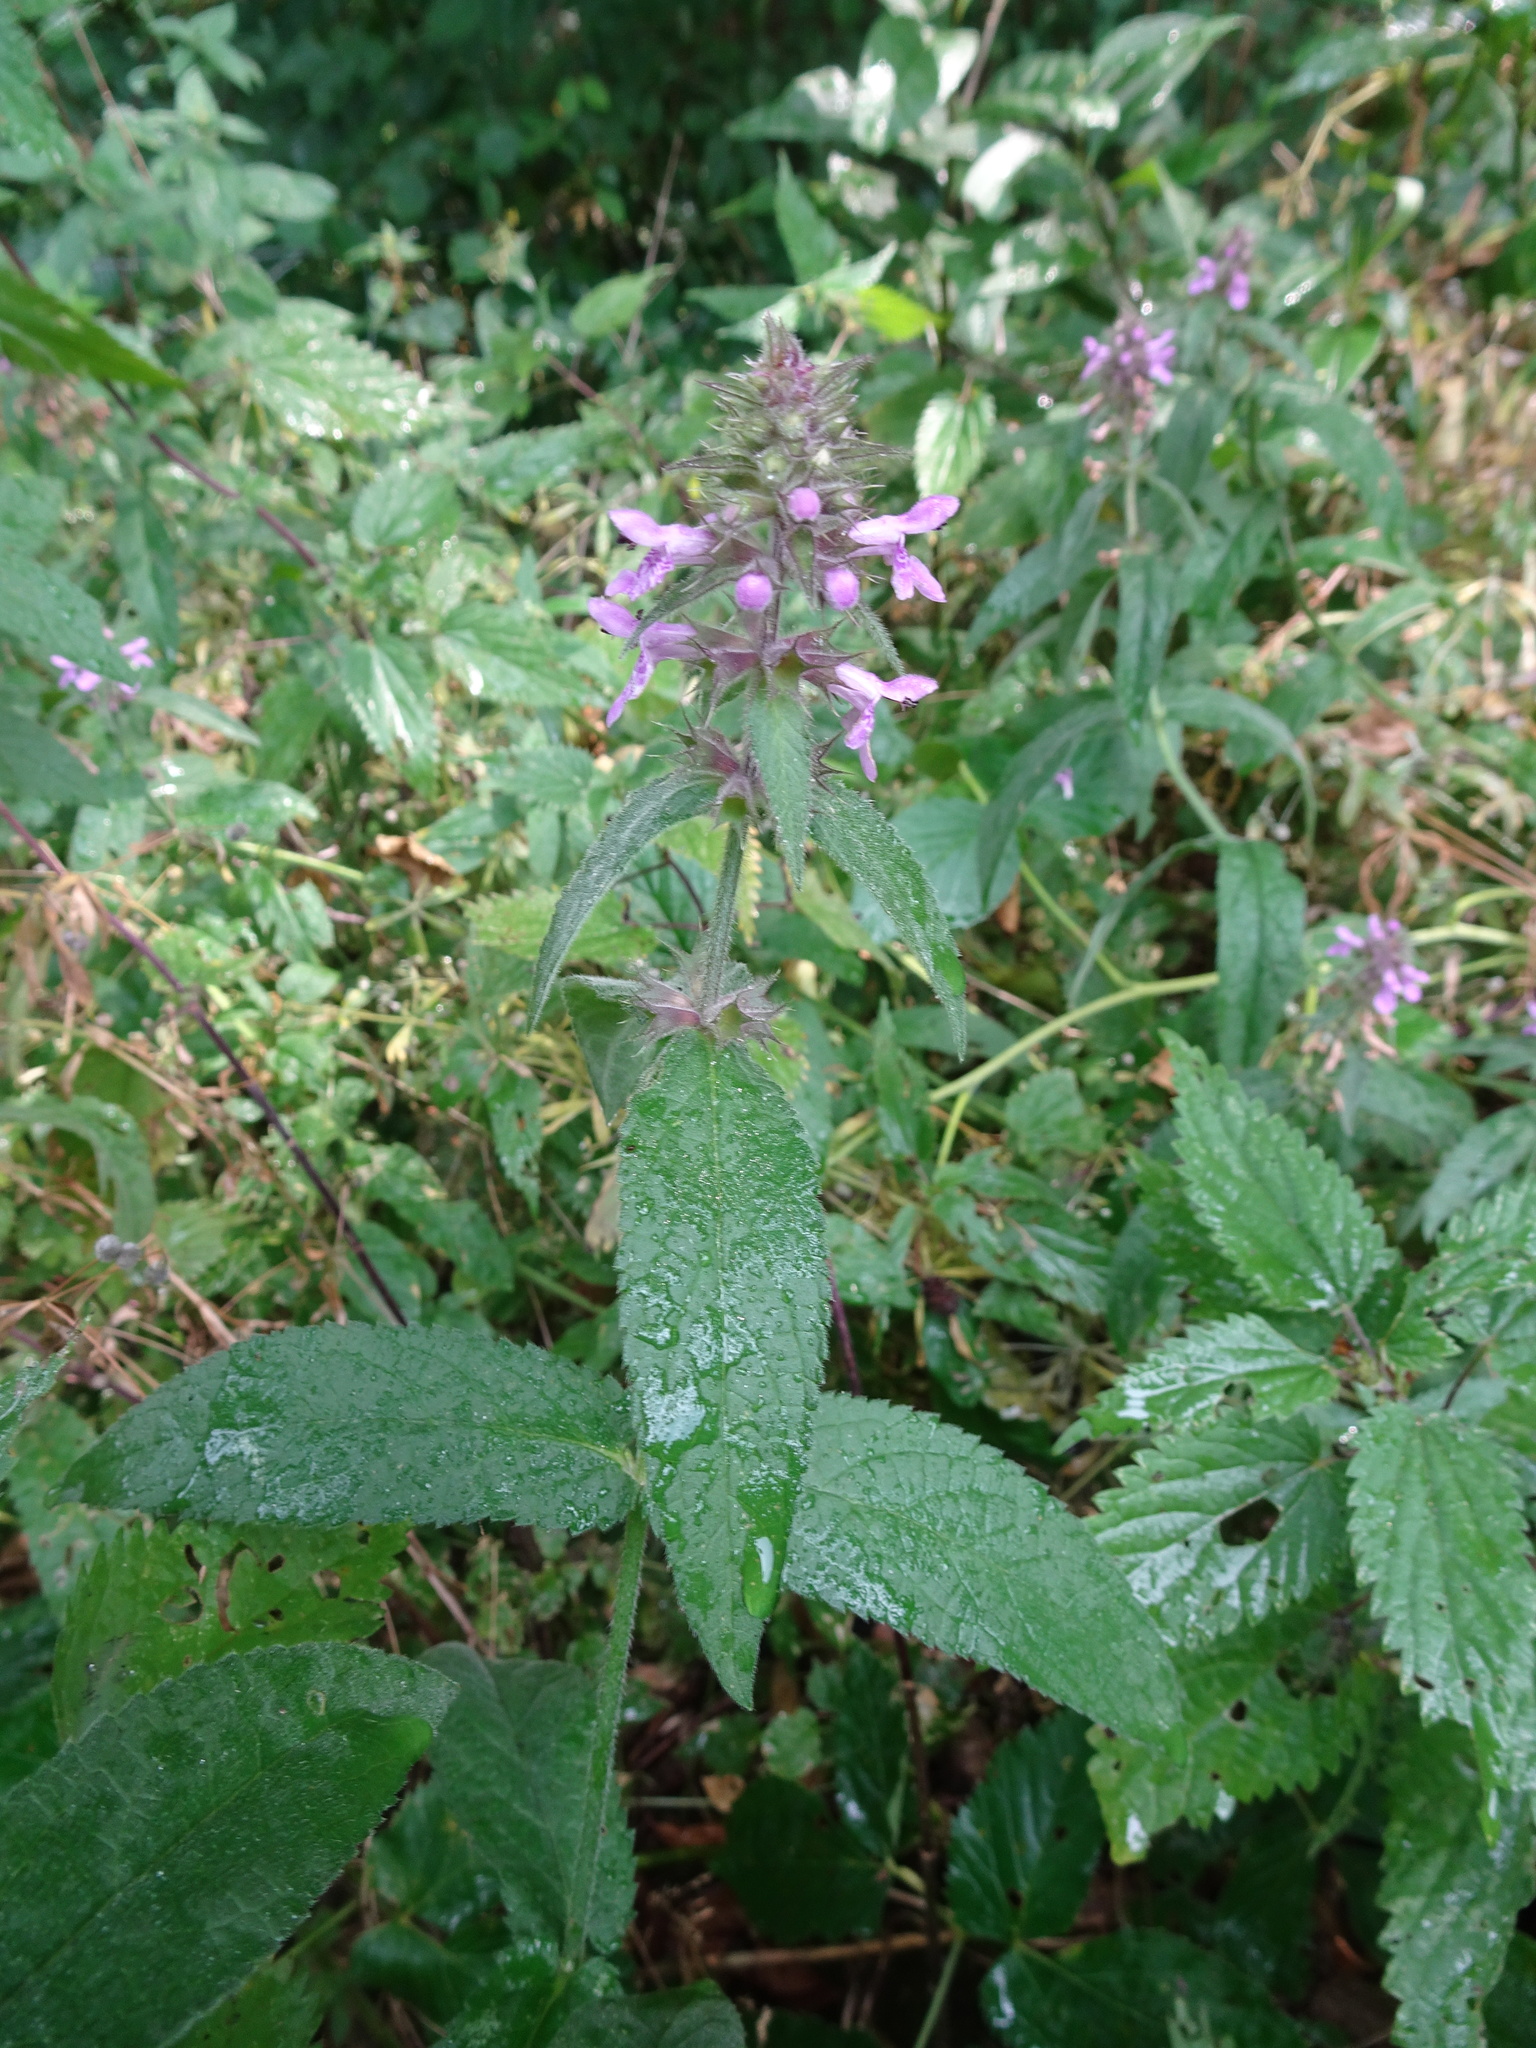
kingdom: Plantae
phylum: Tracheophyta
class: Magnoliopsida
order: Lamiales
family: Lamiaceae
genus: Stachys
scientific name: Stachys palustris
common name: Marsh woundwort
